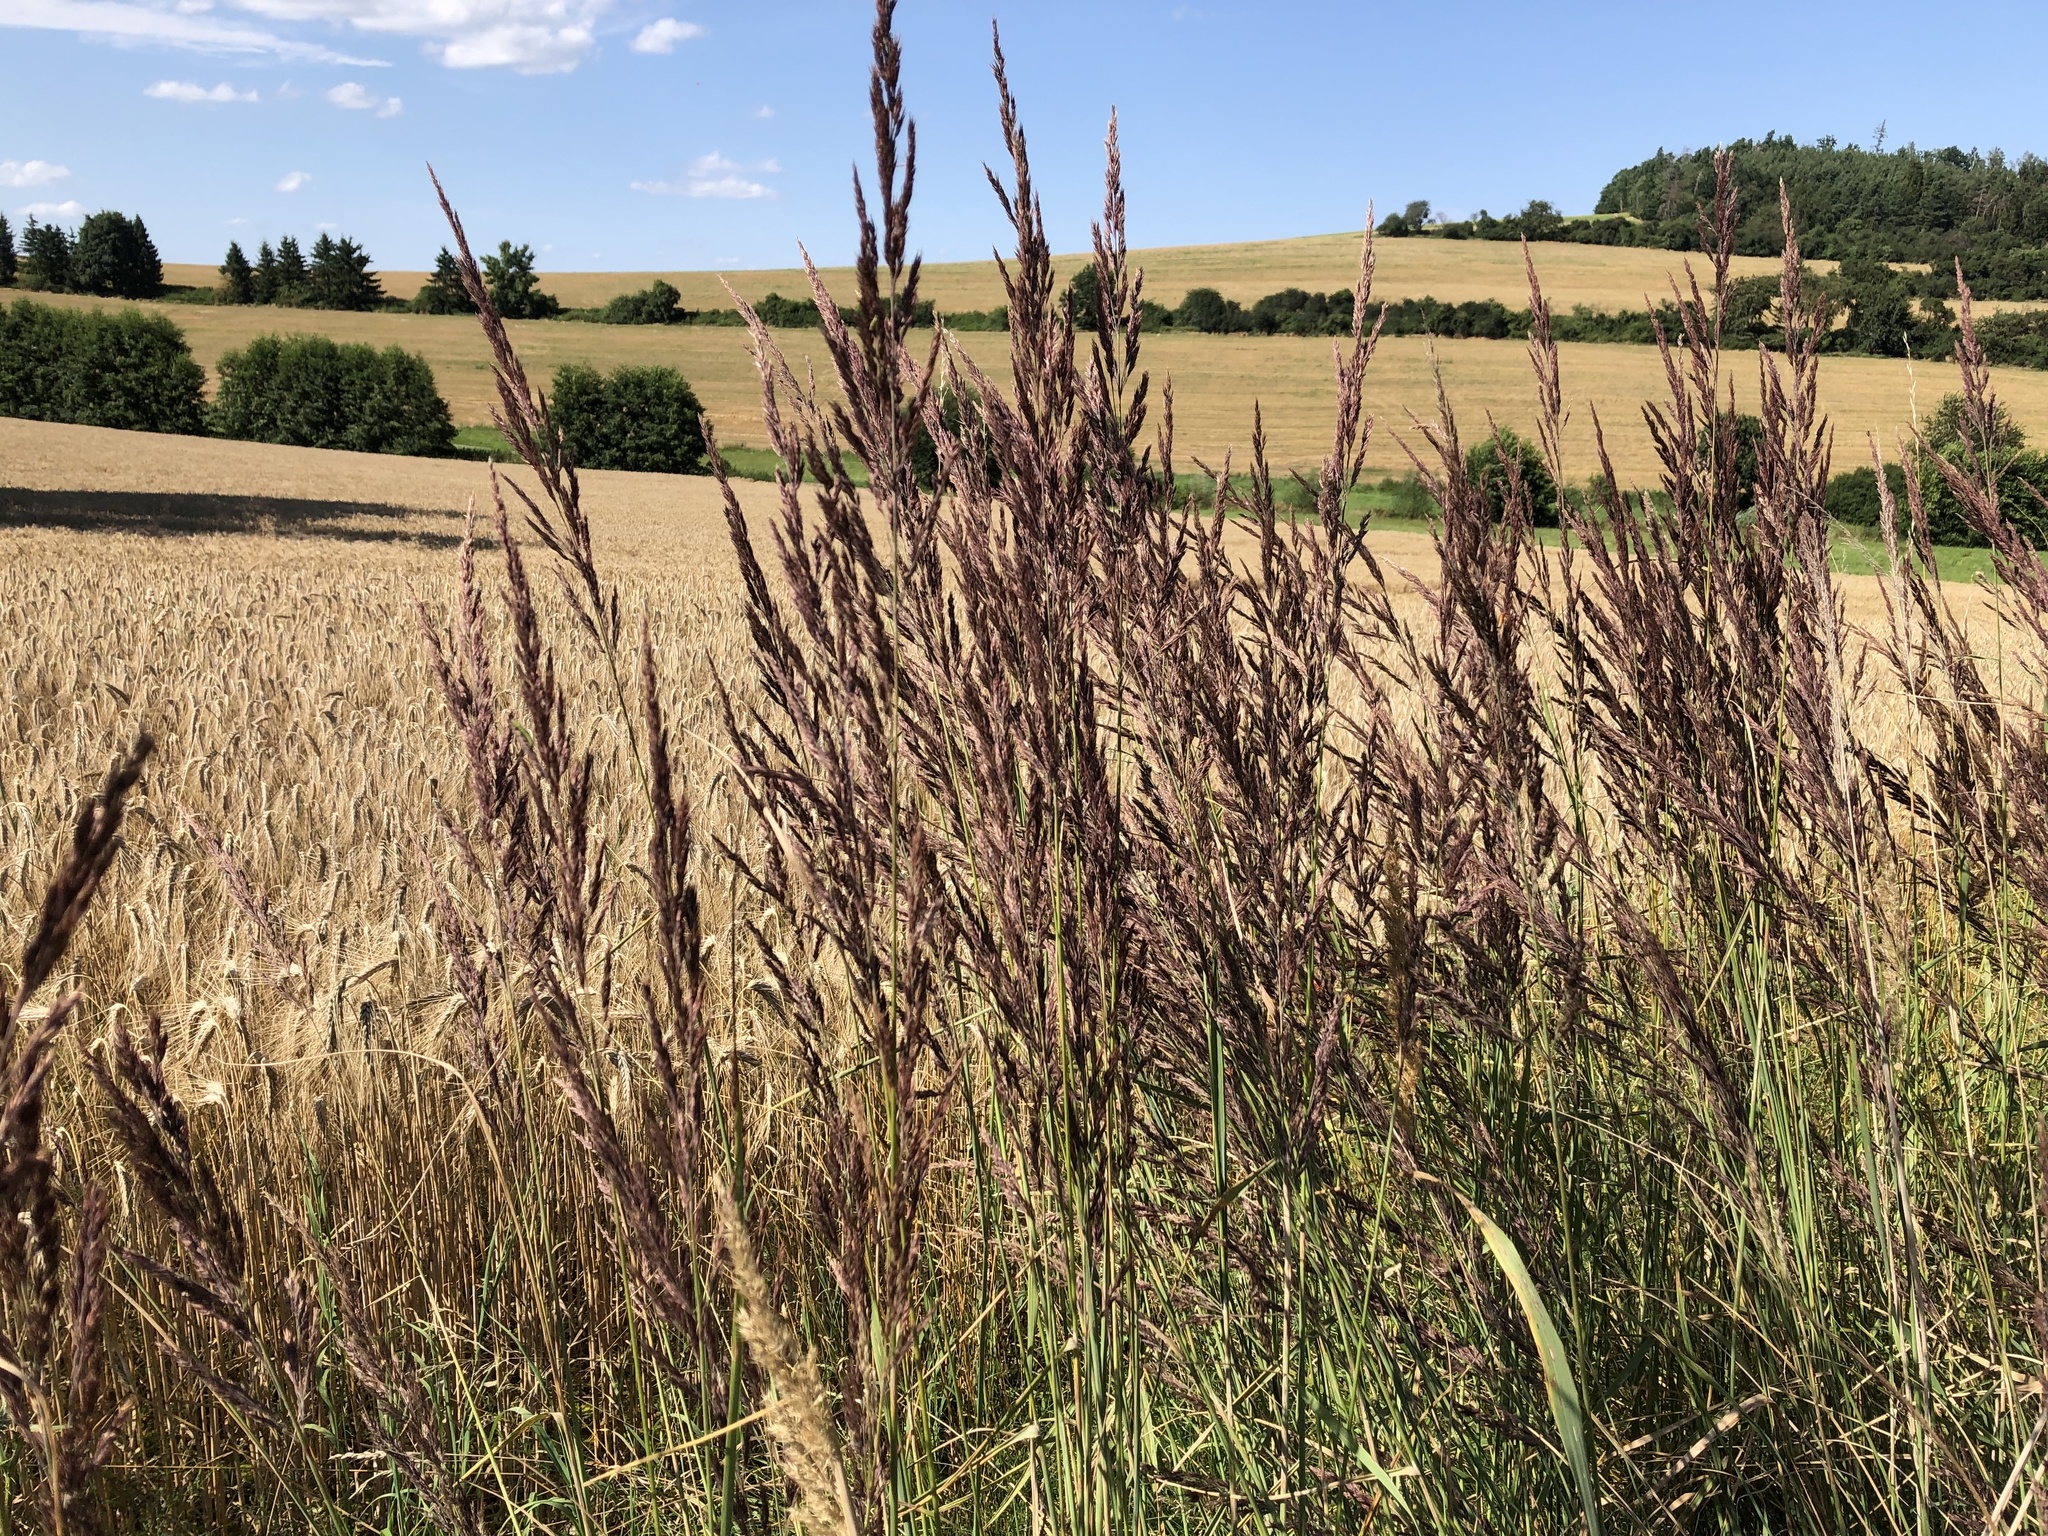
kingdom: Plantae
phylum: Tracheophyta
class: Liliopsida
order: Poales
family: Poaceae
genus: Calamagrostis
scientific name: Calamagrostis epigejos
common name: Wood small-reed
